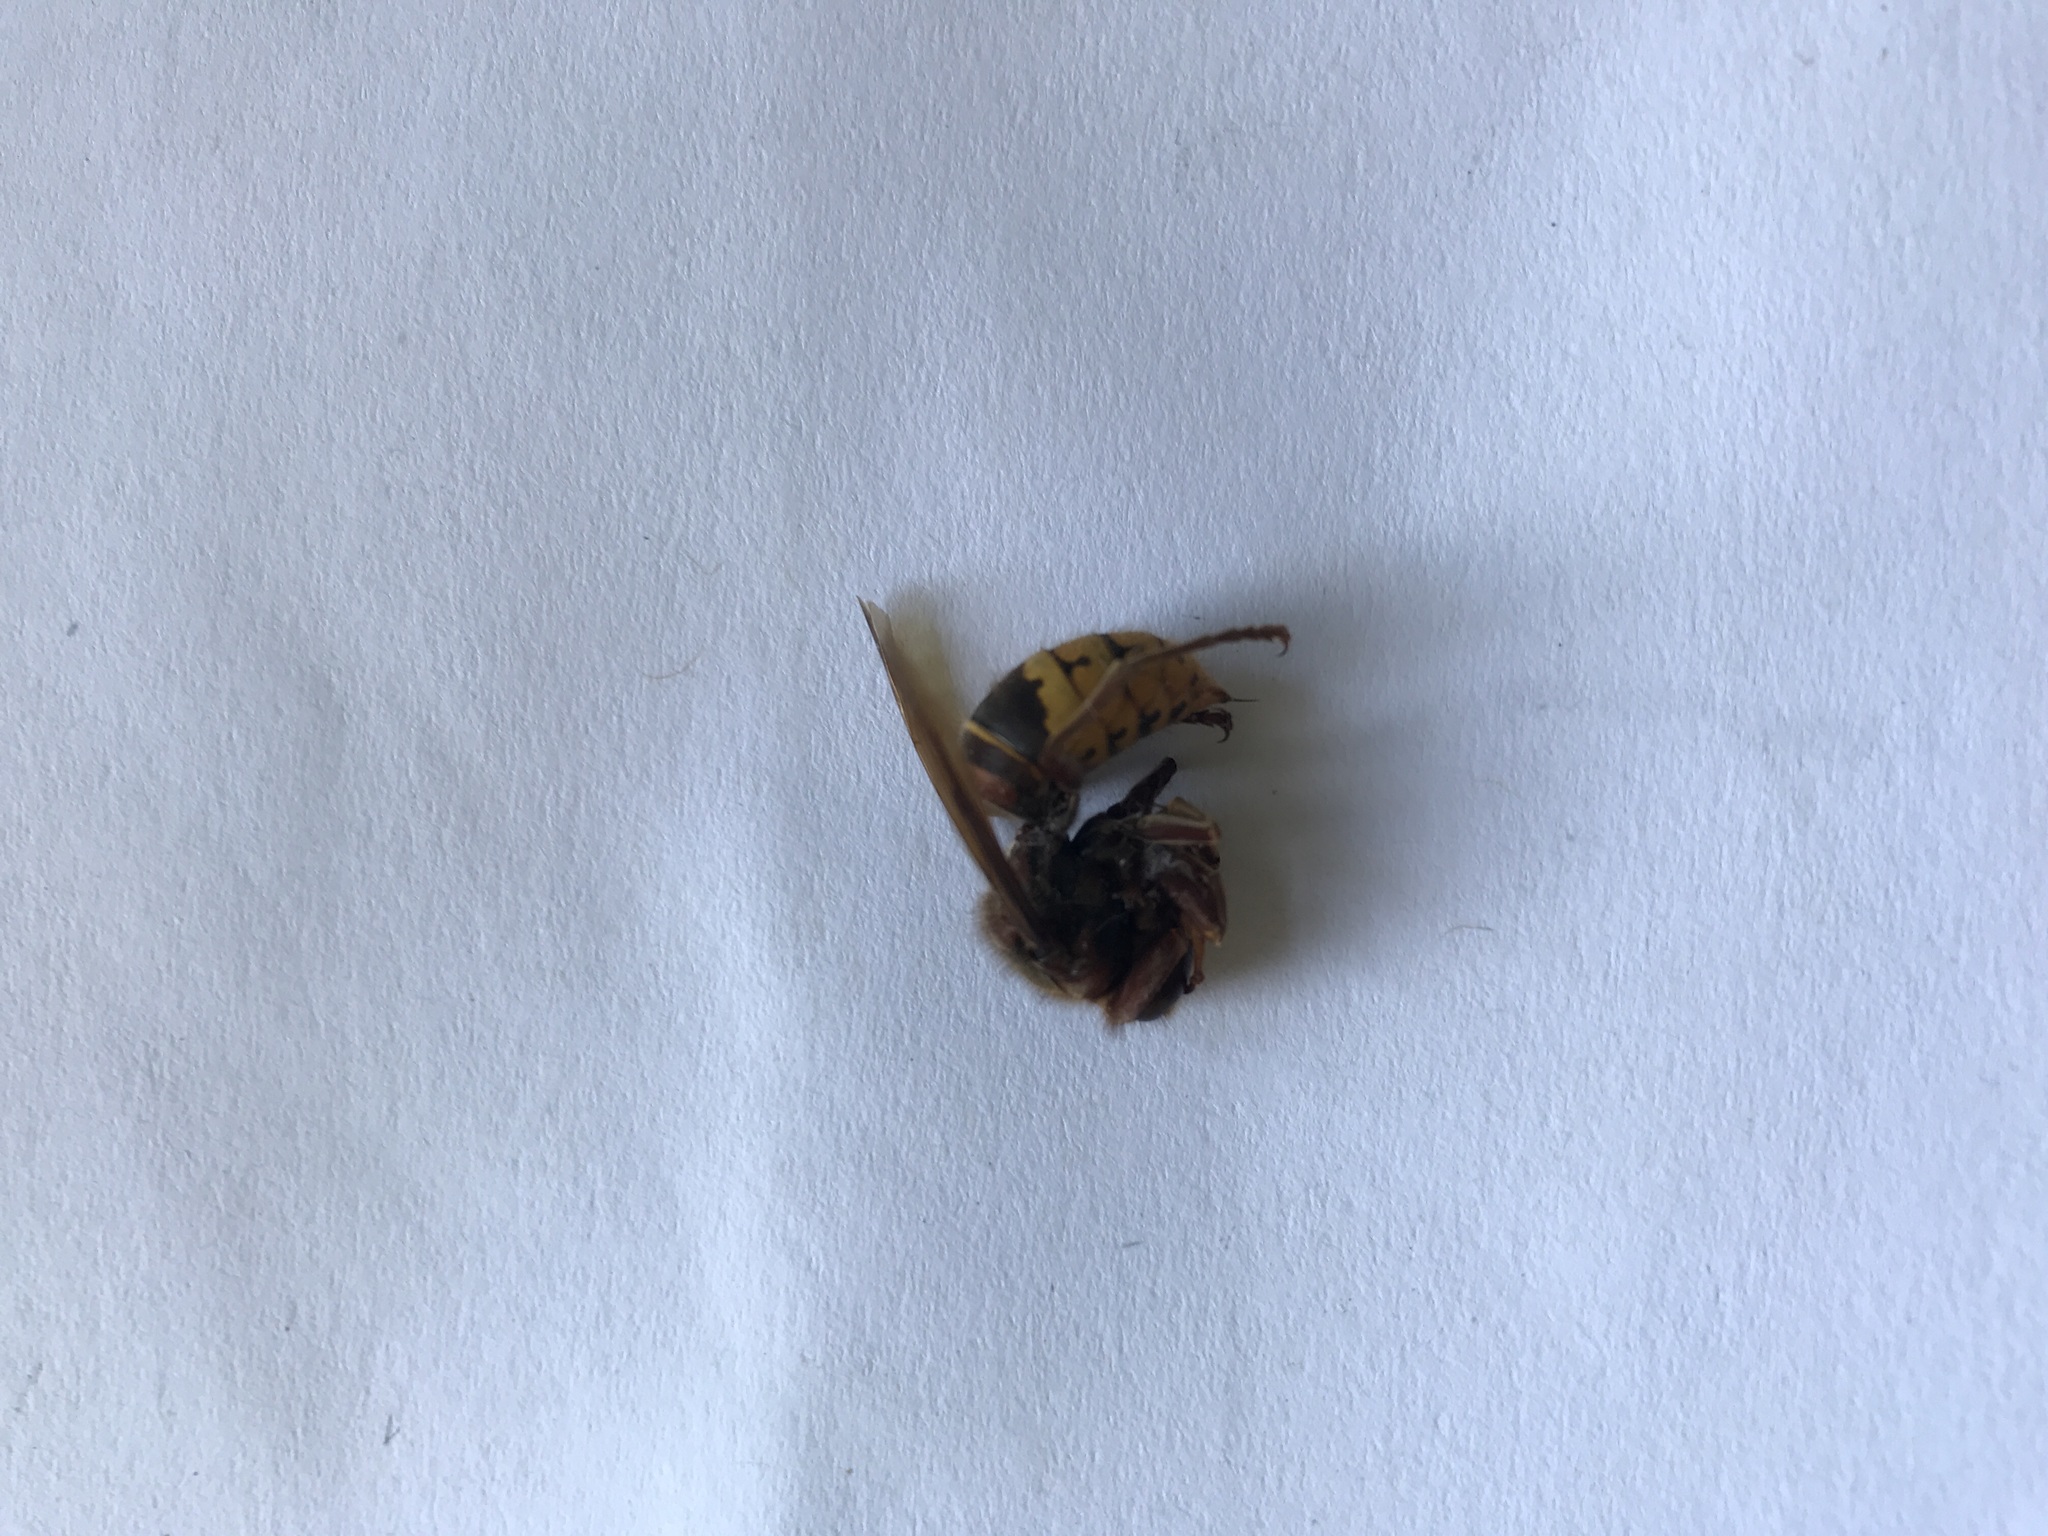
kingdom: Animalia
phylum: Arthropoda
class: Insecta
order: Hymenoptera
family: Vespidae
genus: Vespa
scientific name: Vespa crabro
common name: Hornet
